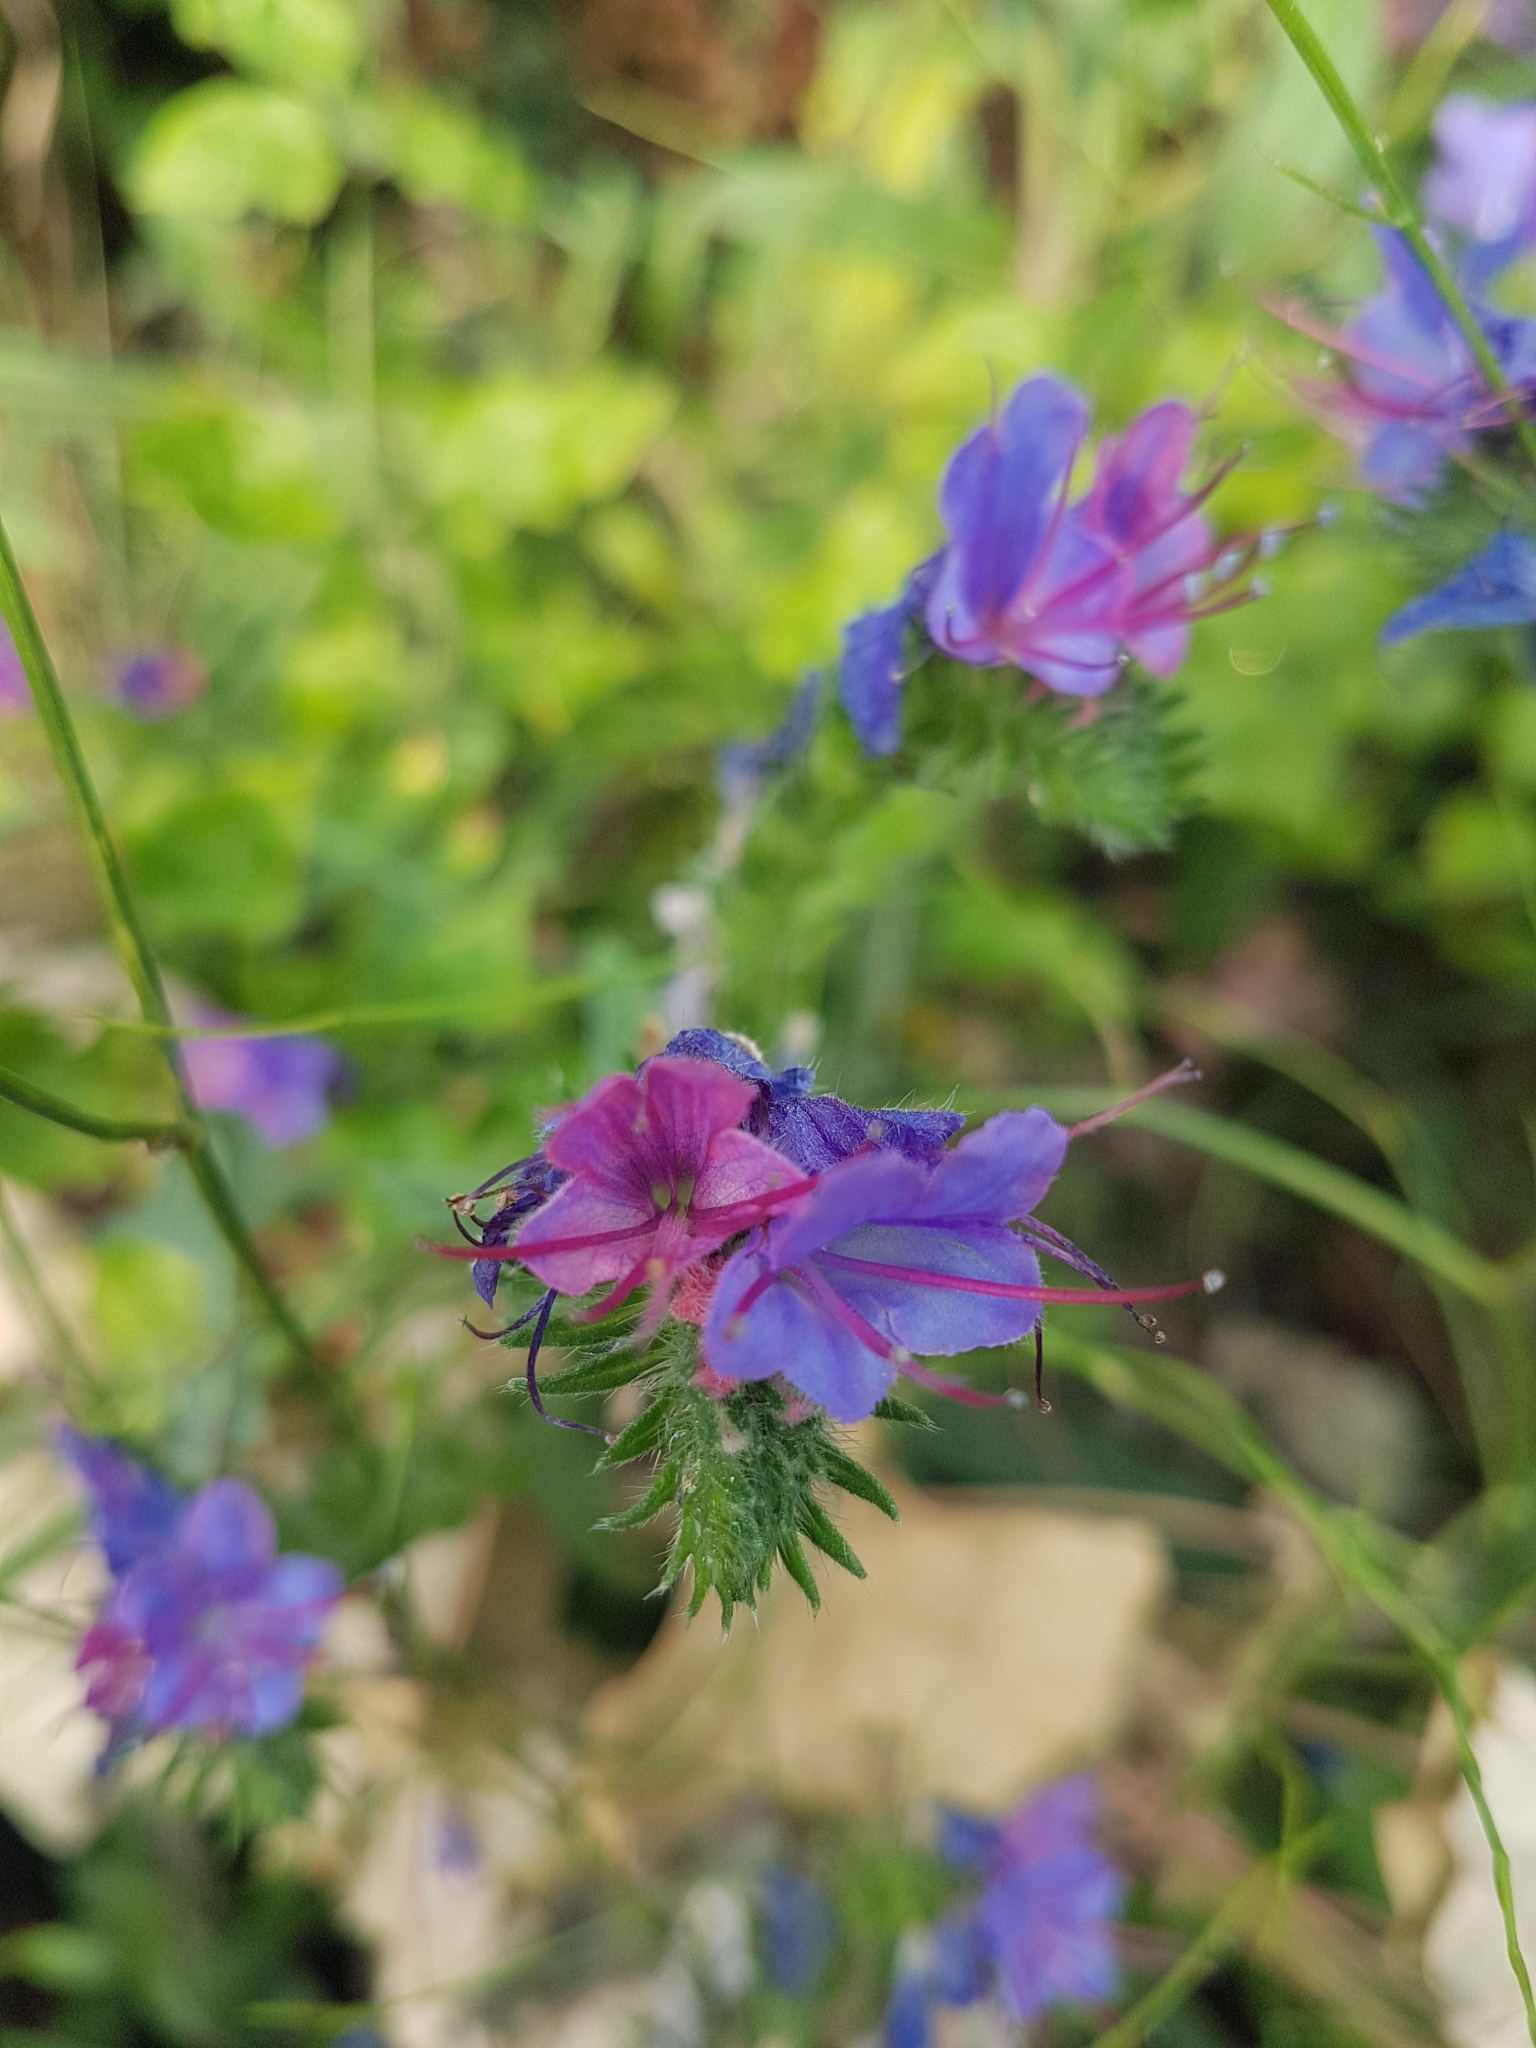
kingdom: Plantae
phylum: Tracheophyta
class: Magnoliopsida
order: Boraginales
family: Boraginaceae
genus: Echium
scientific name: Echium vulgare
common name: Common viper's bugloss
